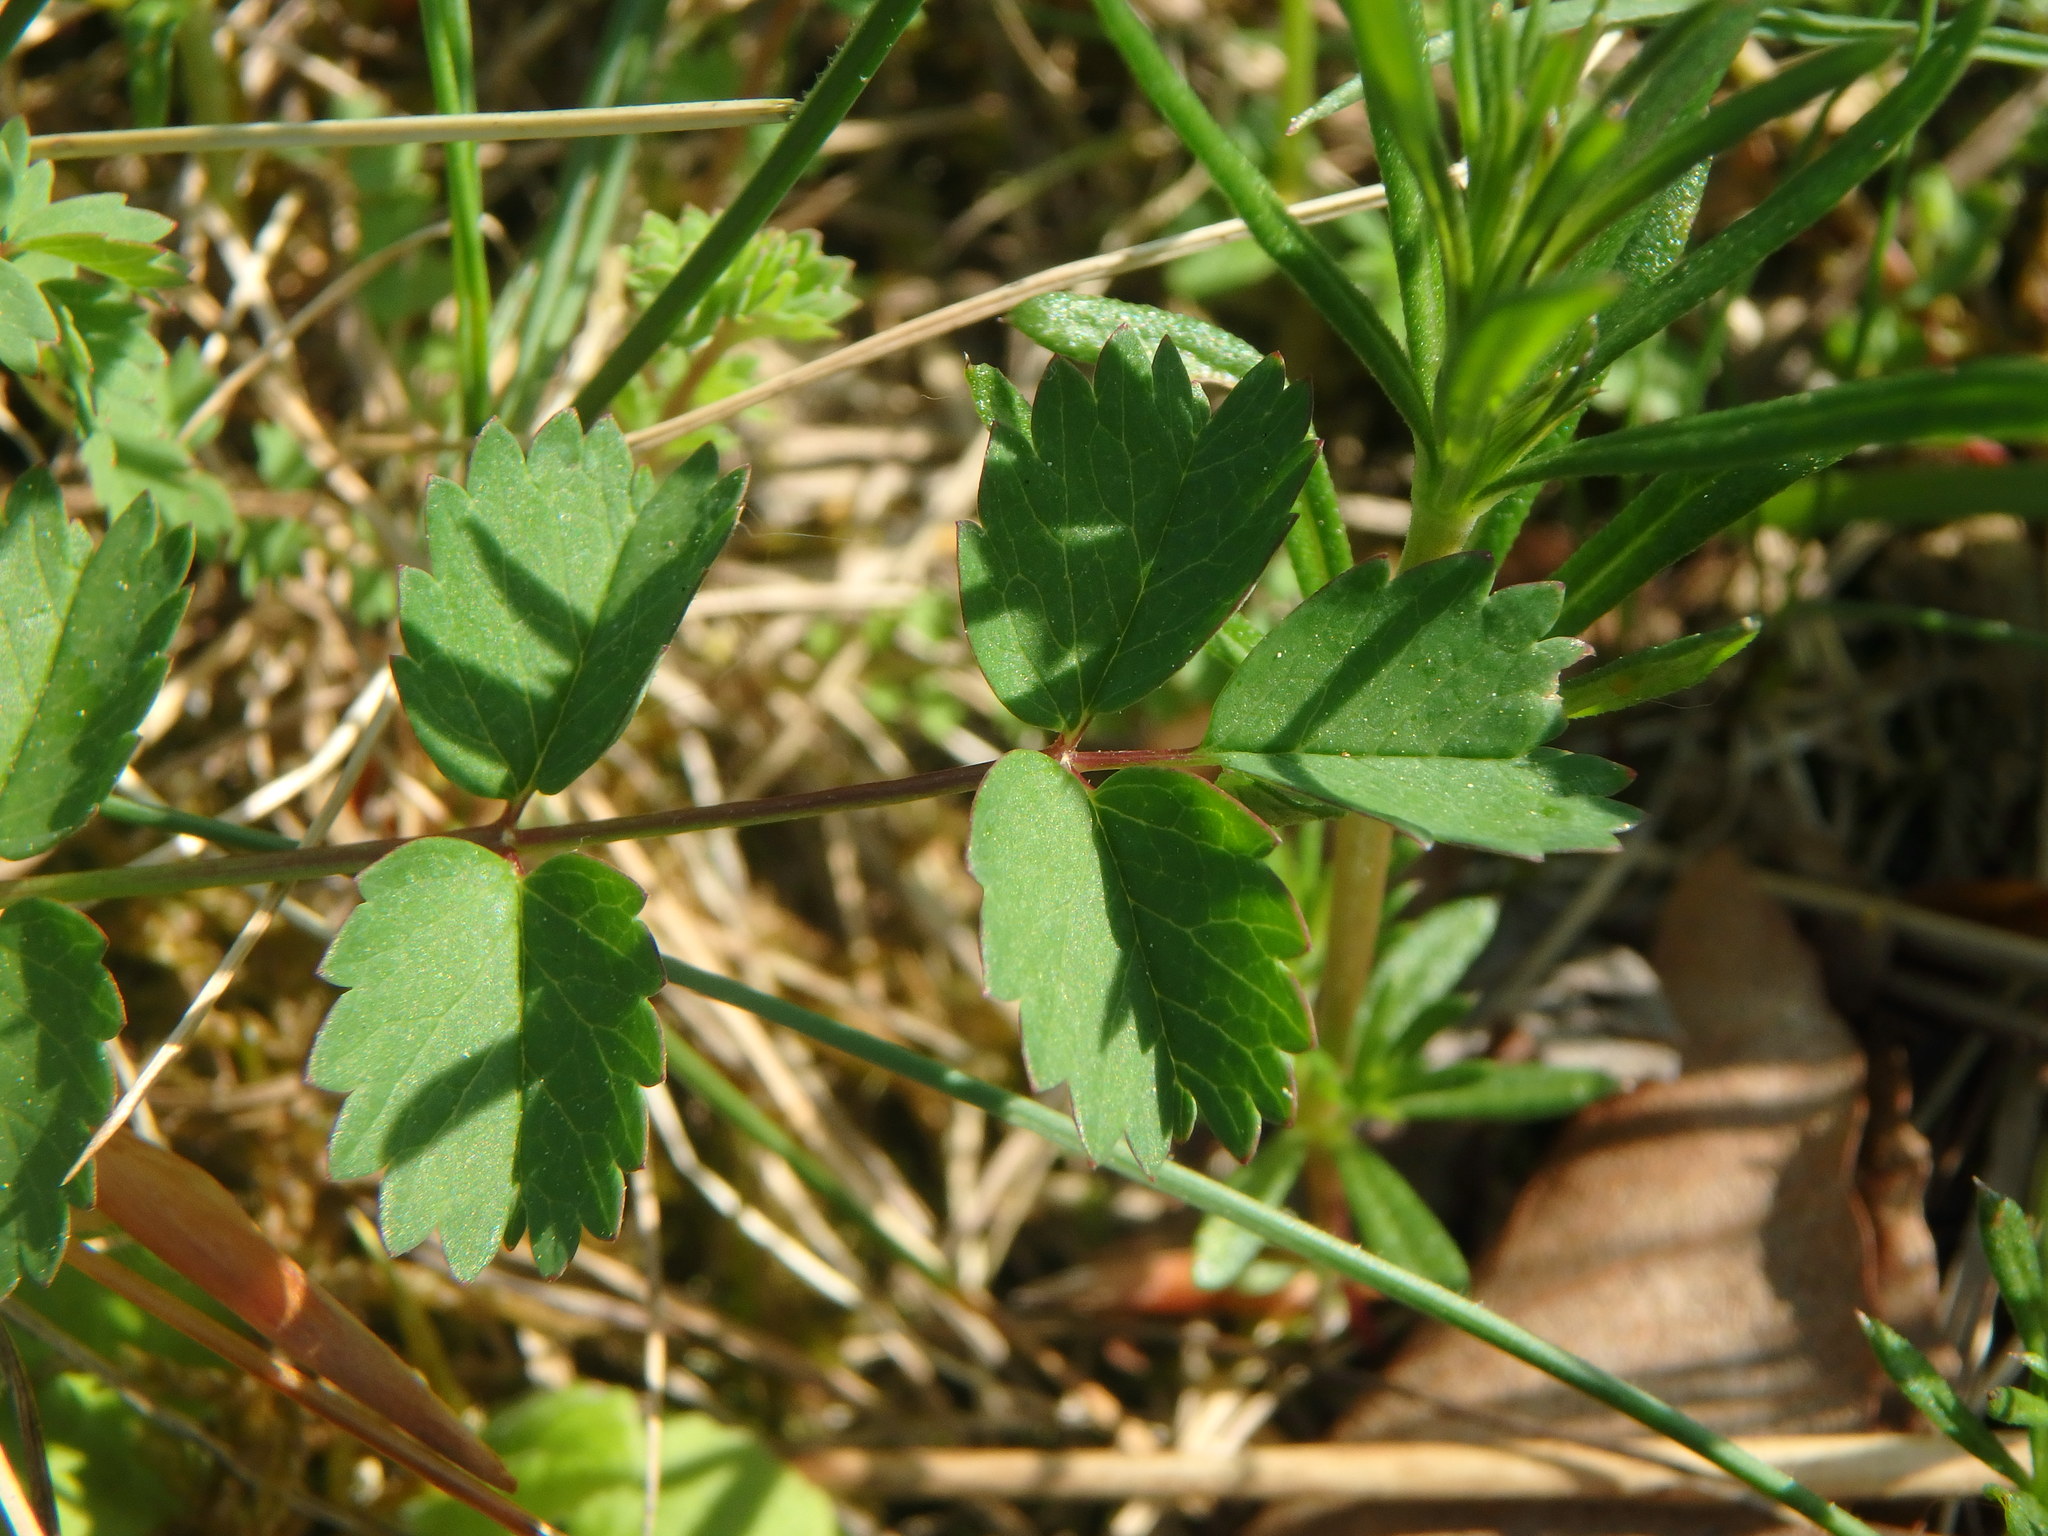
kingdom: Plantae
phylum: Tracheophyta
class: Magnoliopsida
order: Rosales
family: Rosaceae
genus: Poterium
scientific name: Poterium sanguisorba
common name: Salad burnet
